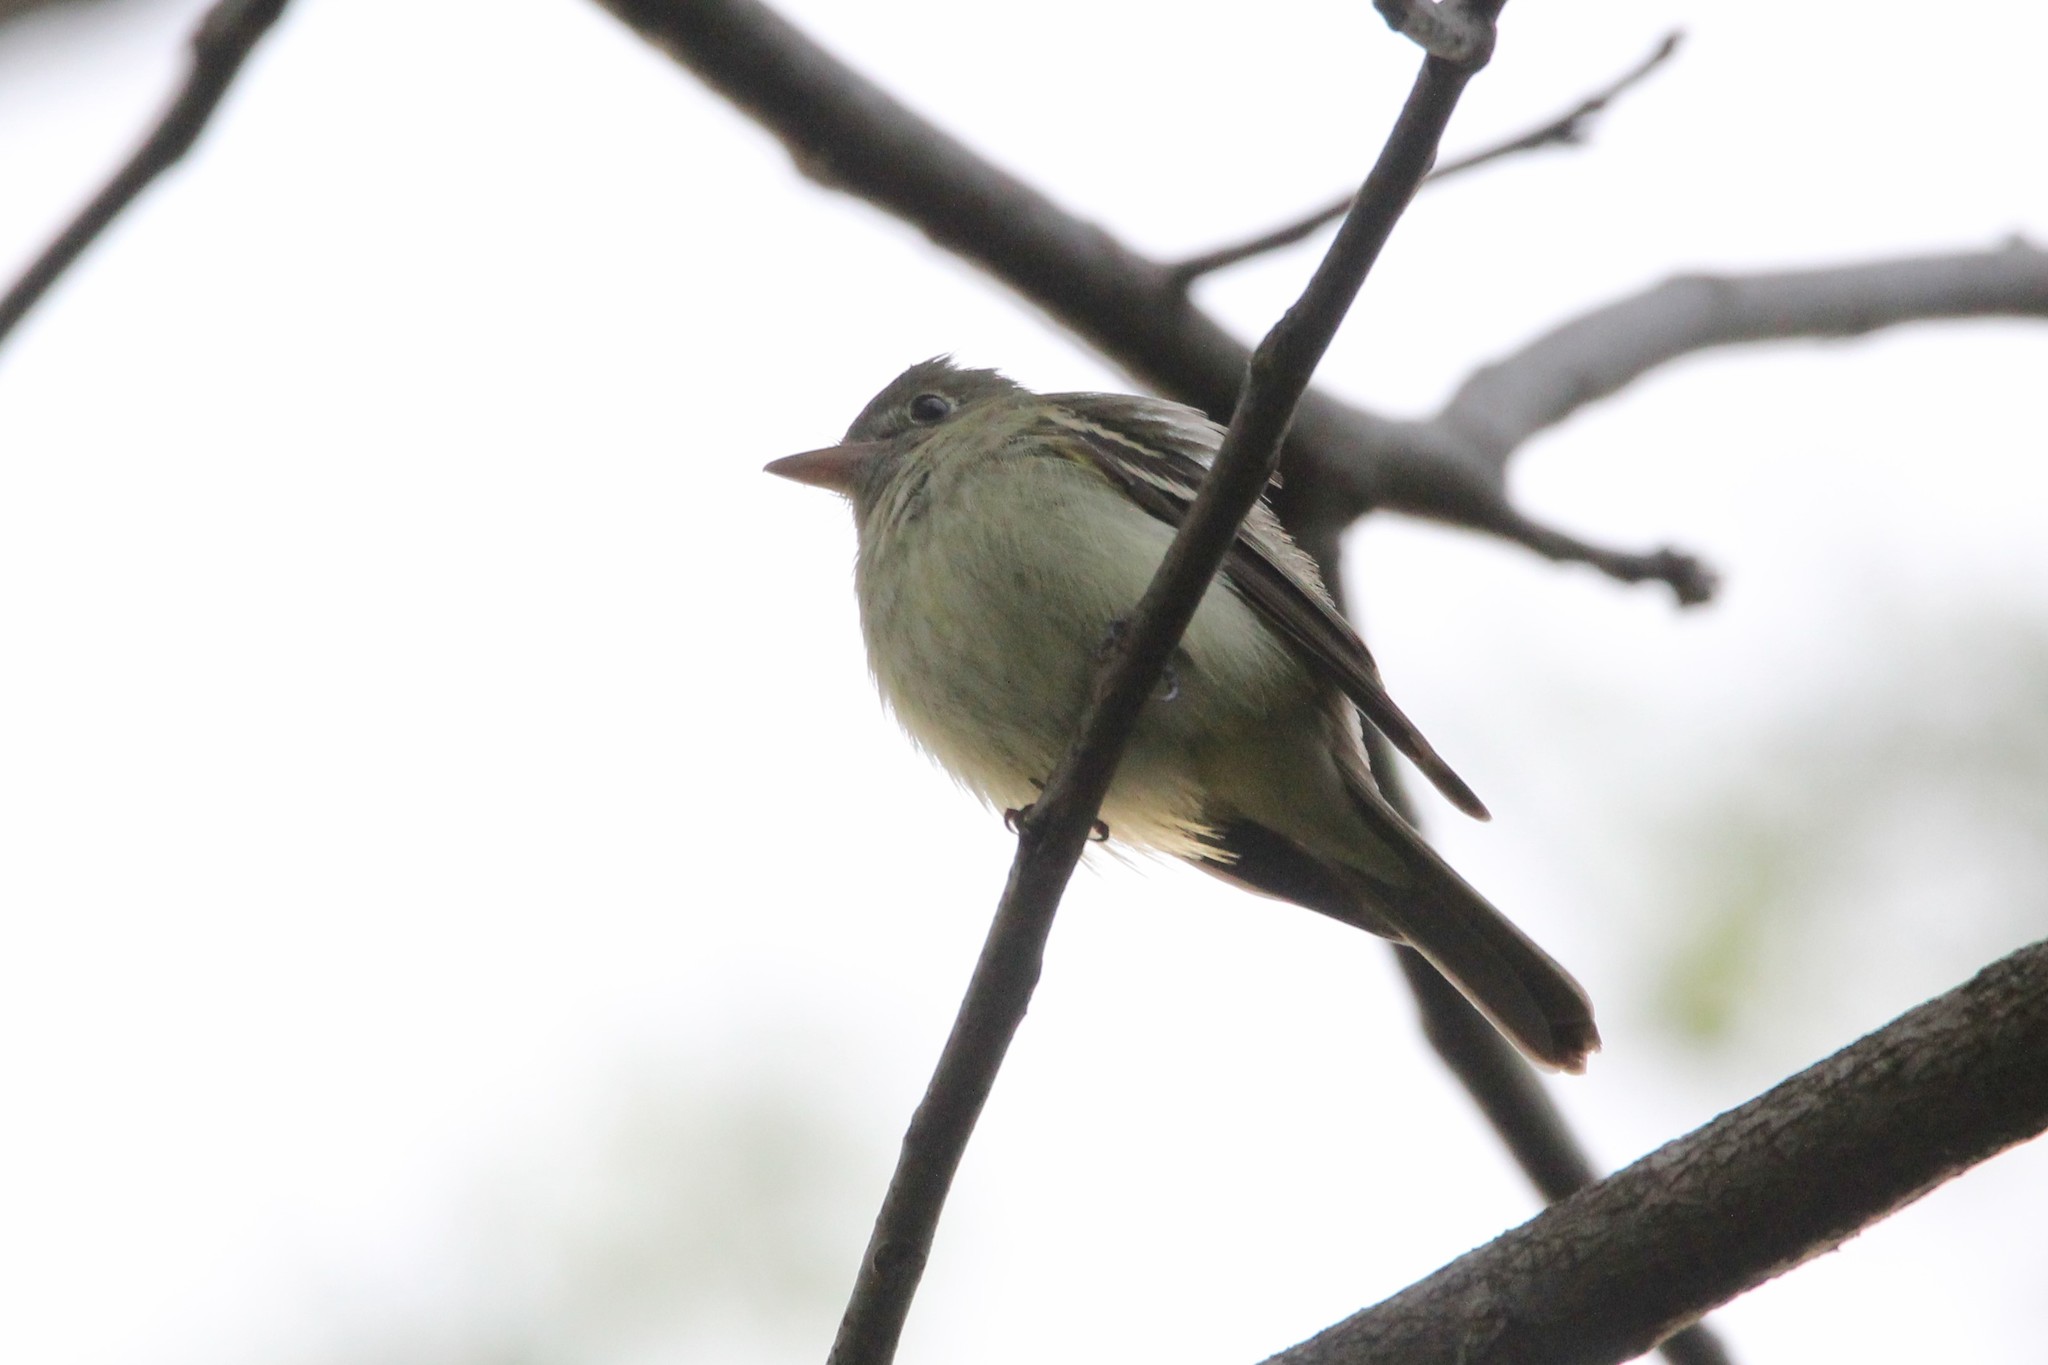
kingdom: Animalia
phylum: Chordata
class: Aves
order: Passeriformes
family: Tyrannidae
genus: Empidonax
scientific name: Empidonax virescens
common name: Acadian flycatcher
